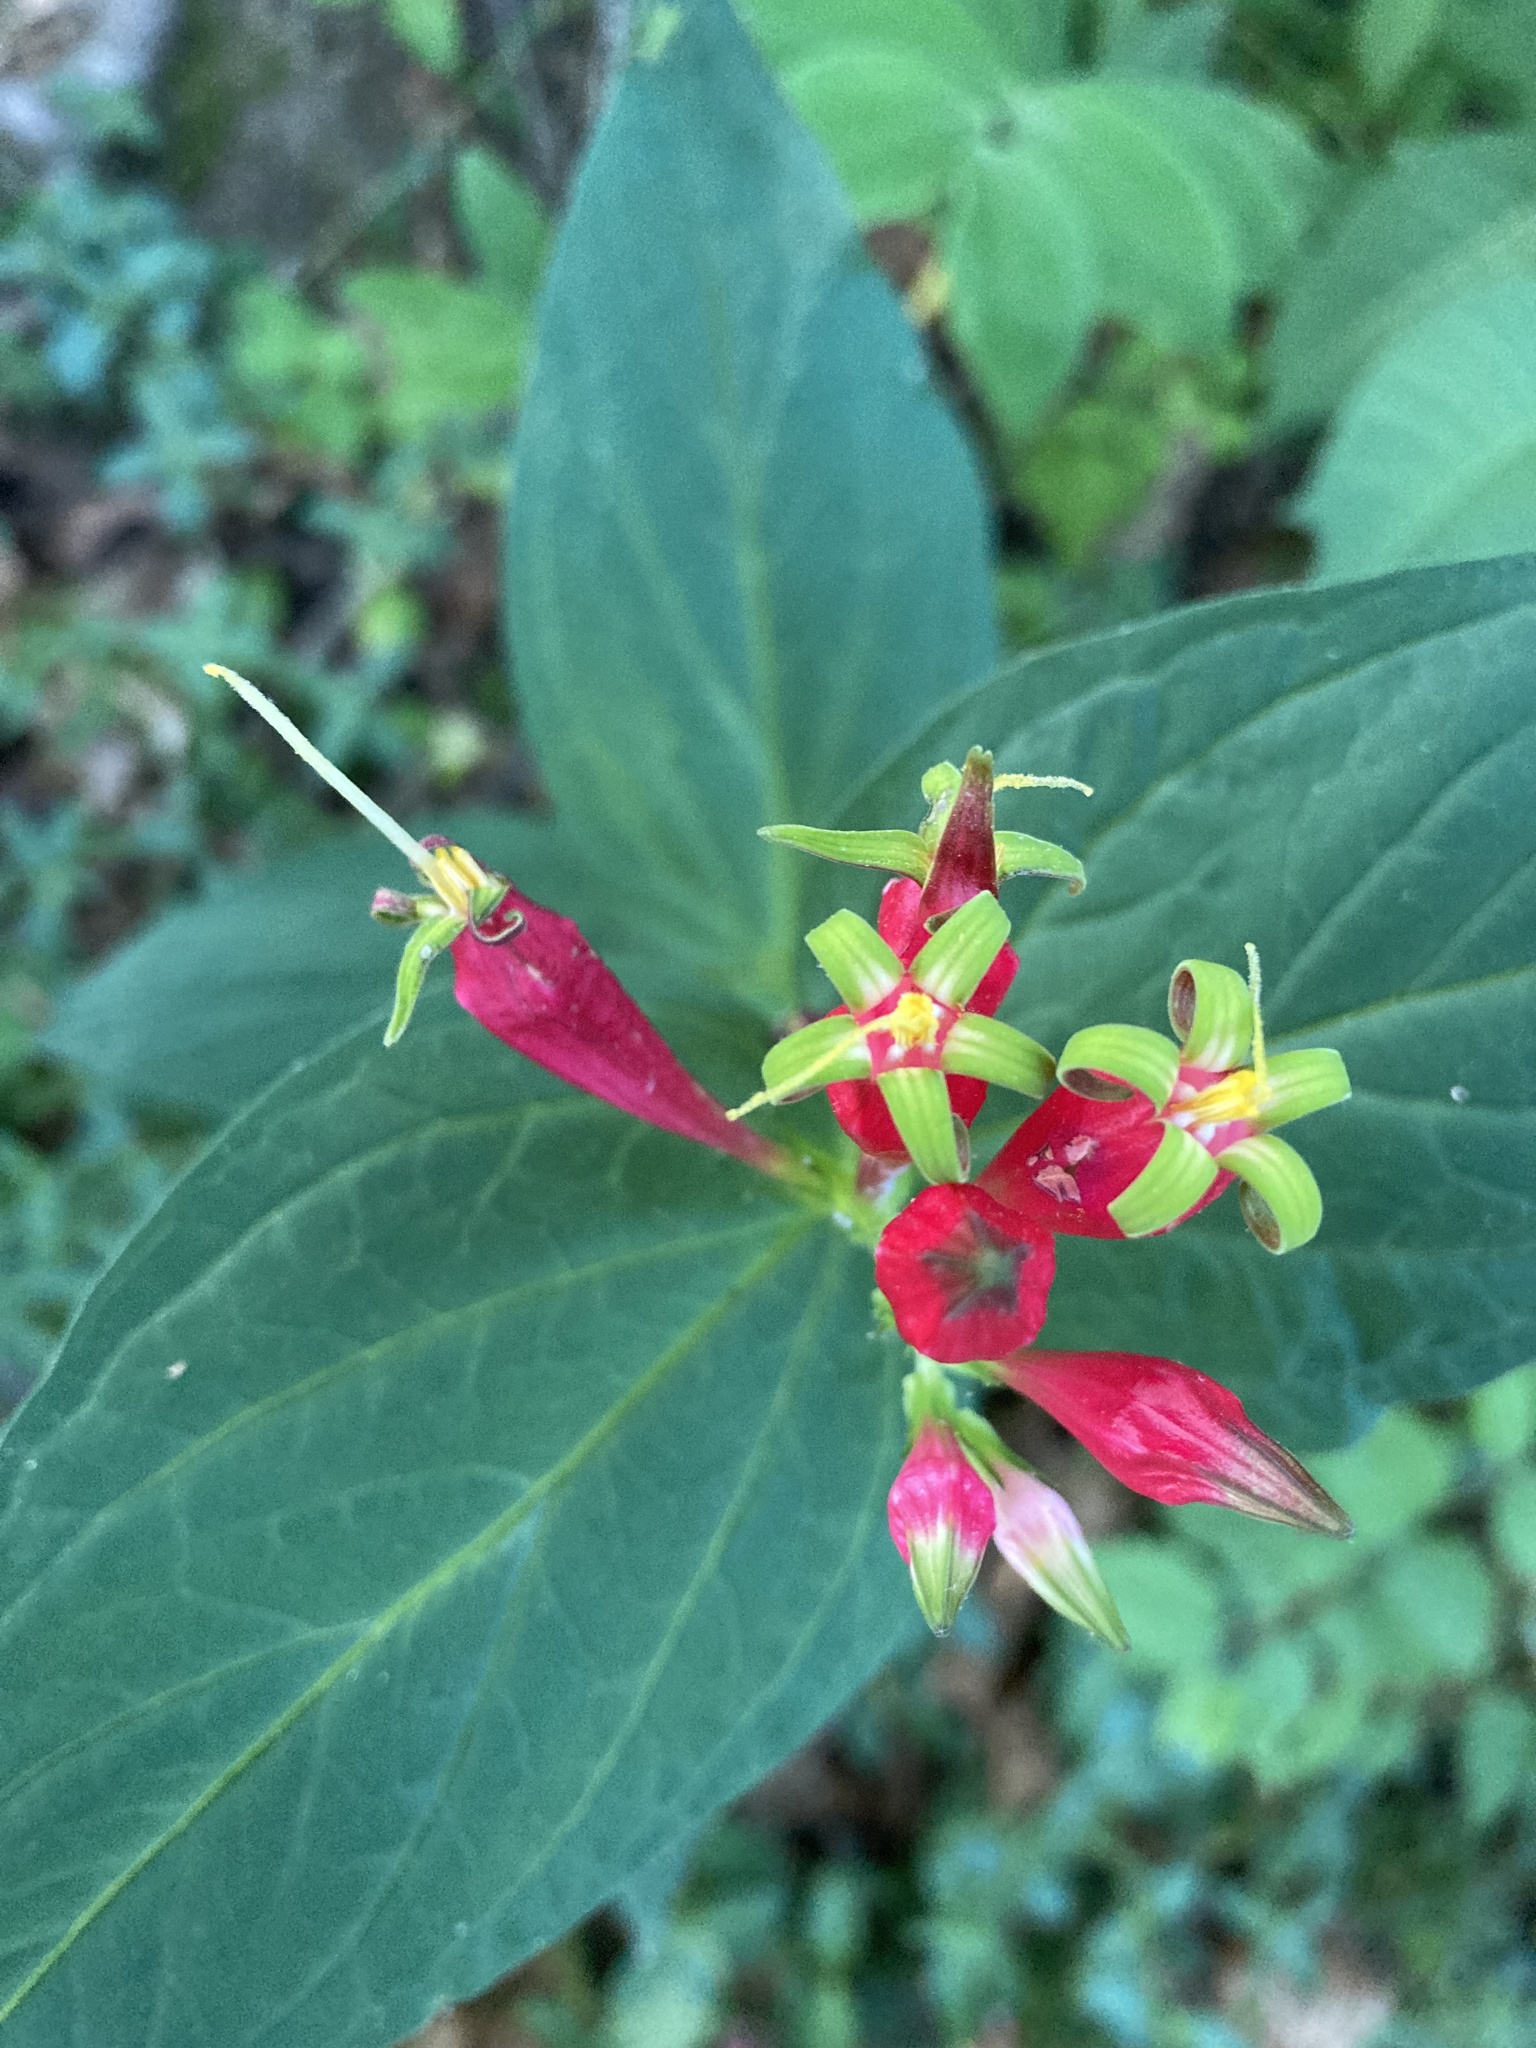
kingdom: Plantae
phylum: Tracheophyta
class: Magnoliopsida
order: Gentianales
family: Loganiaceae
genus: Spigelia
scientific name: Spigelia marilandica
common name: Indian-pink
